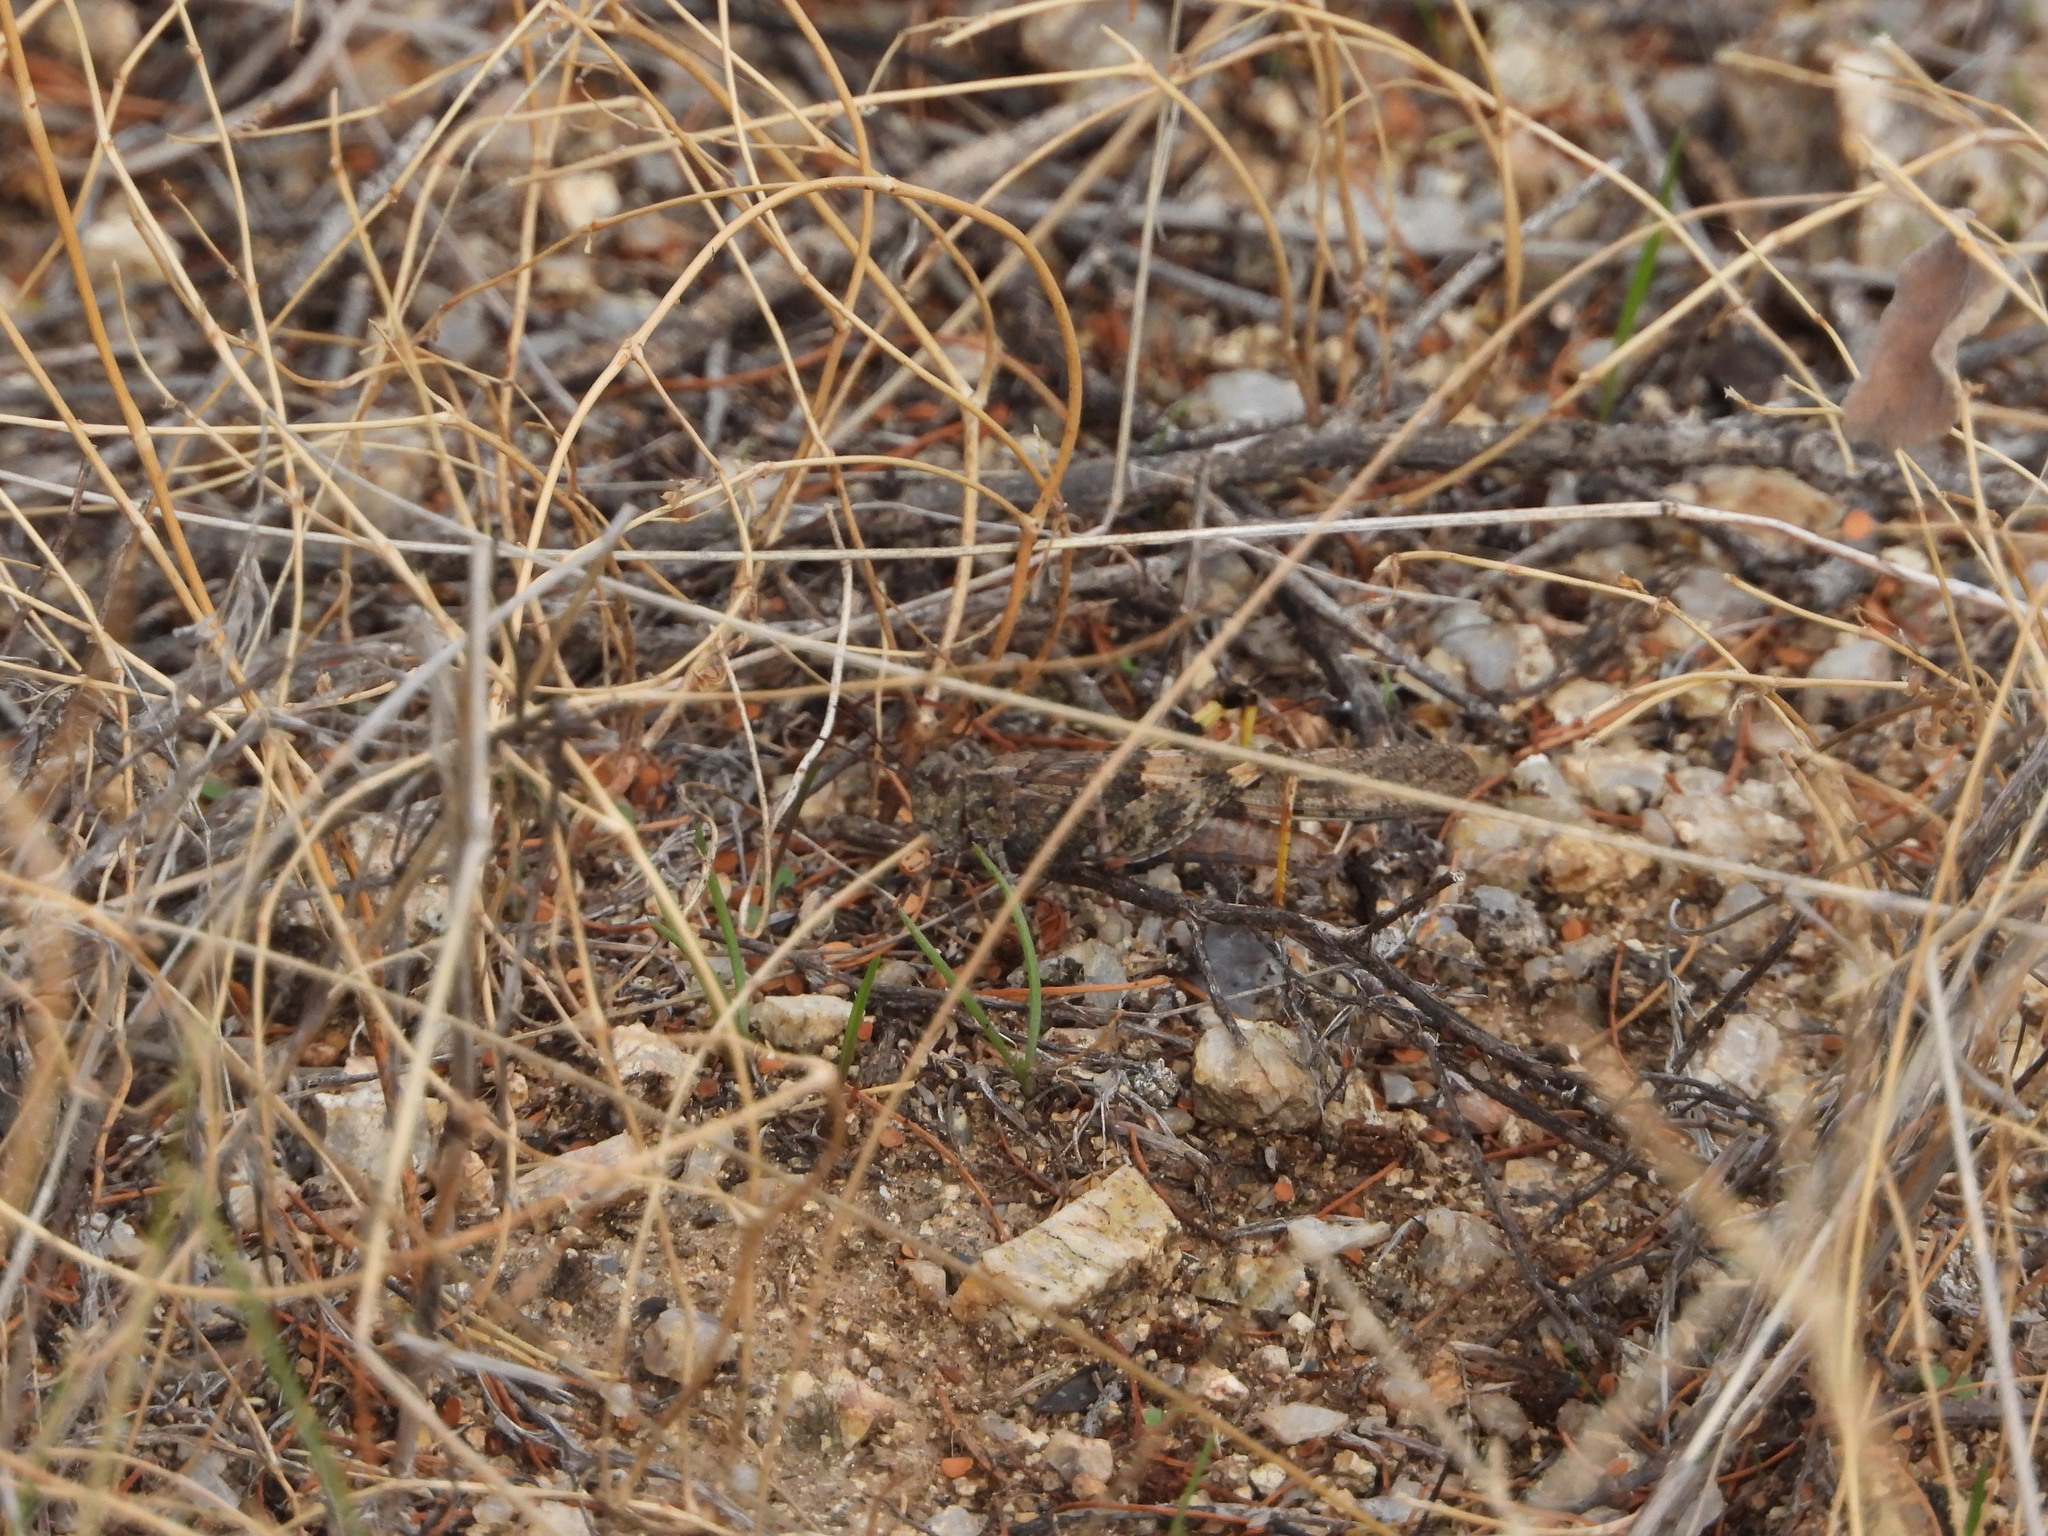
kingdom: Animalia
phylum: Arthropoda
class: Insecta
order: Orthoptera
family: Acrididae
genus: Trimerotropis
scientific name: Trimerotropis pallidipennis
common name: Pallid-winged grasshopper
